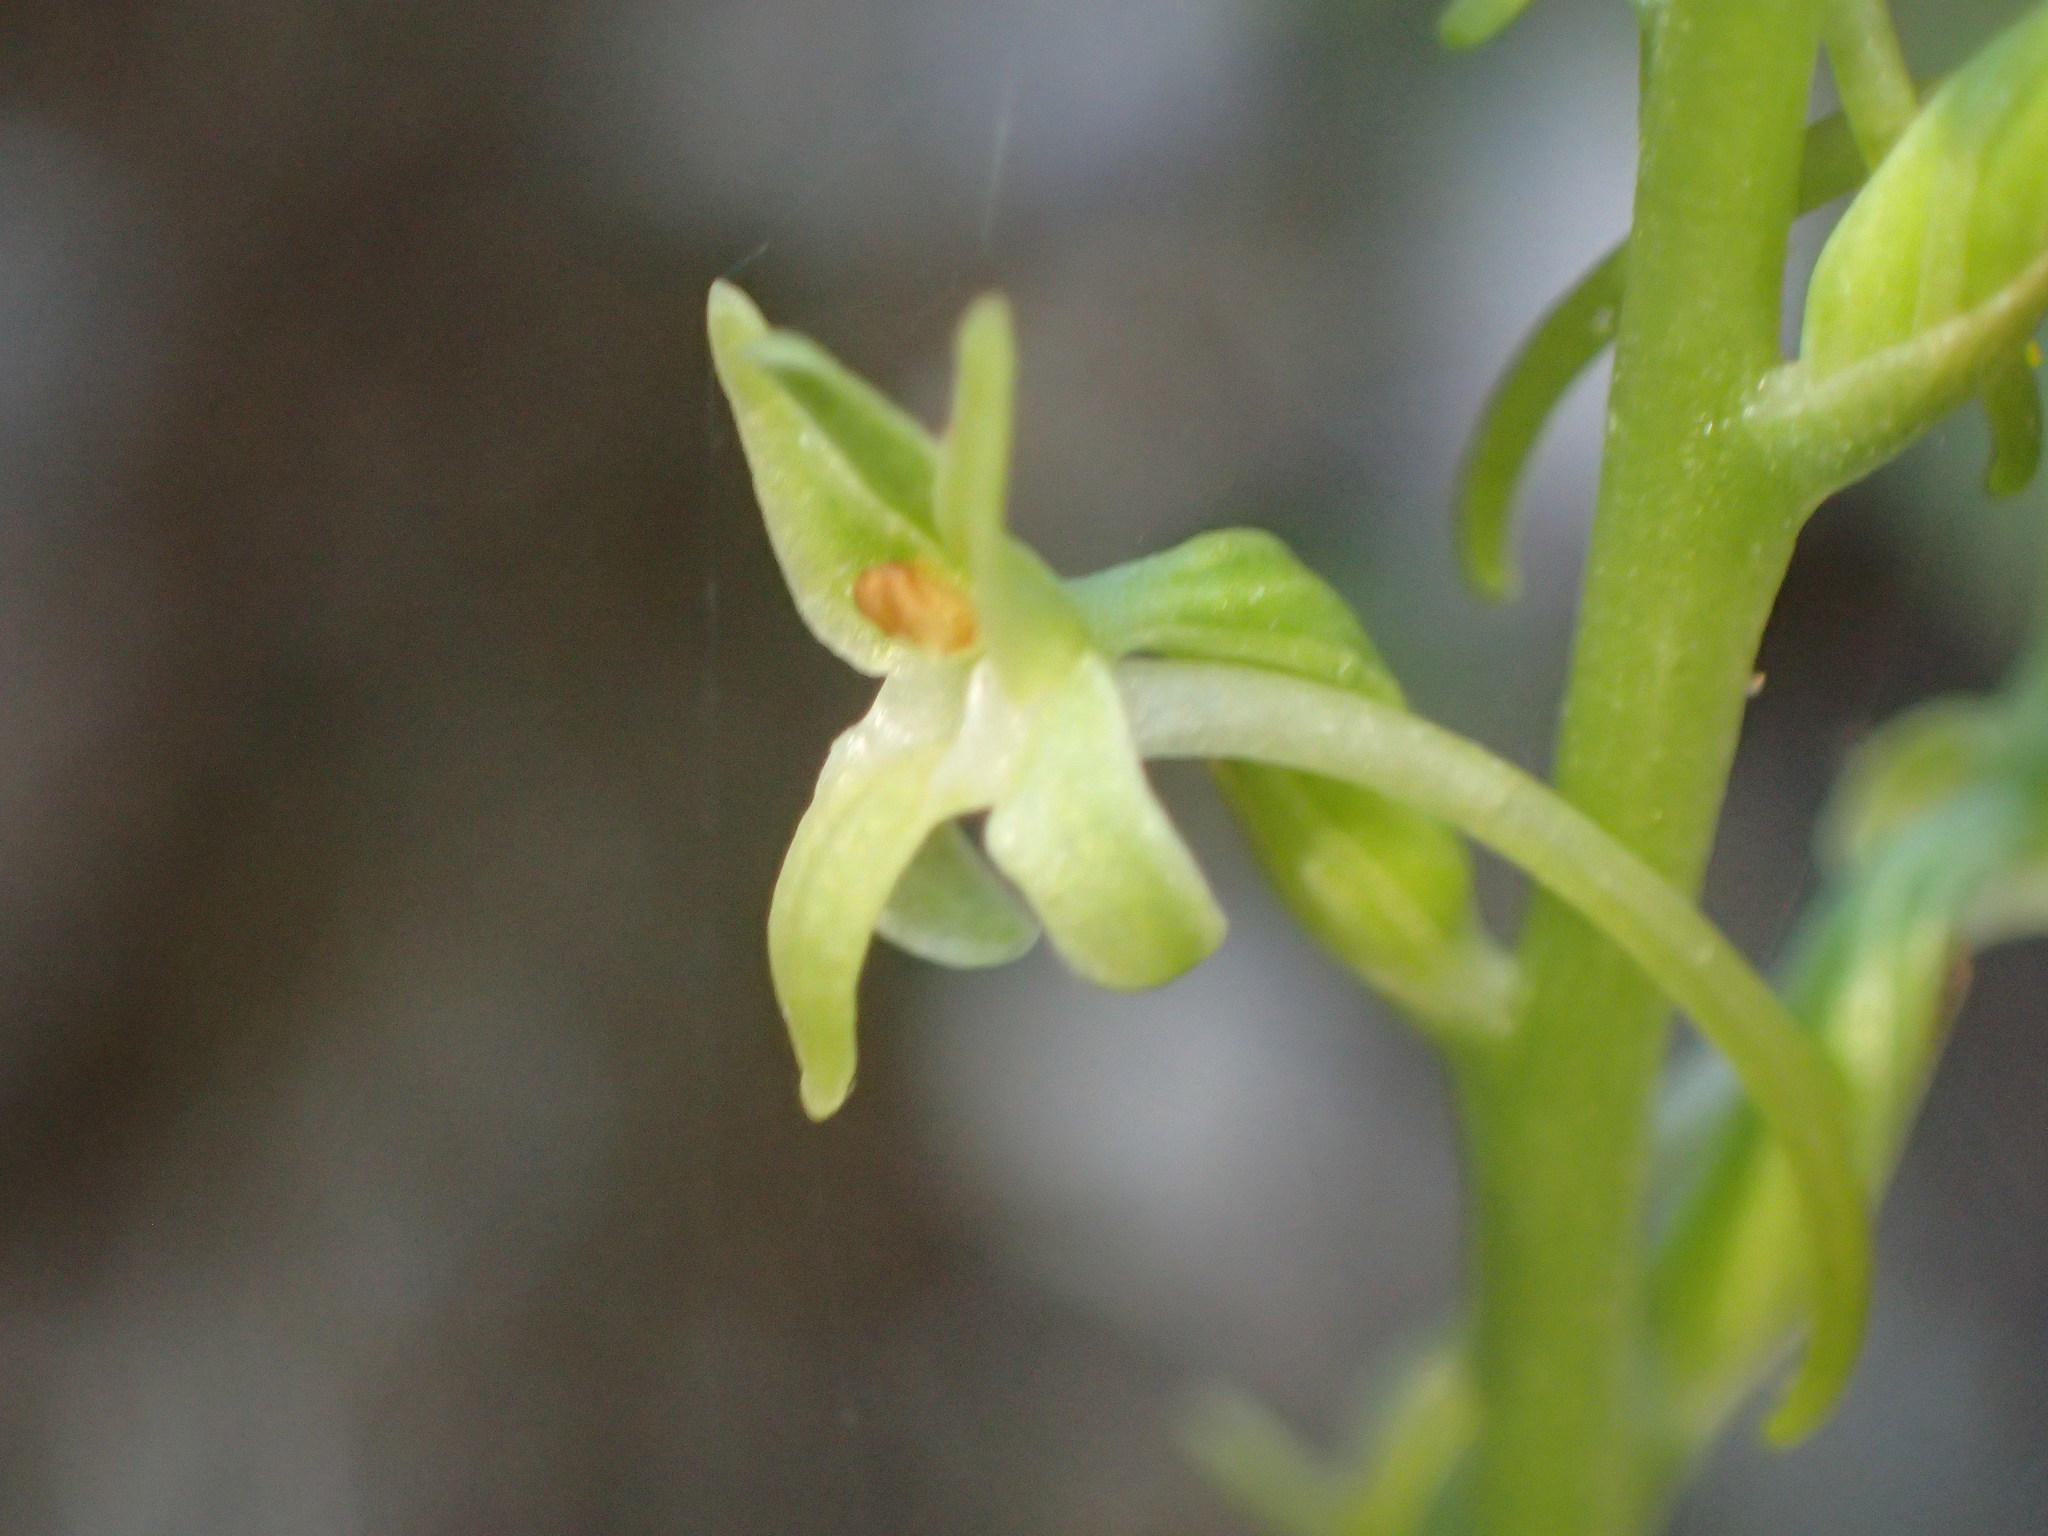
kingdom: Plantae
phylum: Tracheophyta
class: Liliopsida
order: Asparagales
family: Orchidaceae
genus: Platanthera
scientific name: Platanthera elongata
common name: Dense-flowered rein orchid
